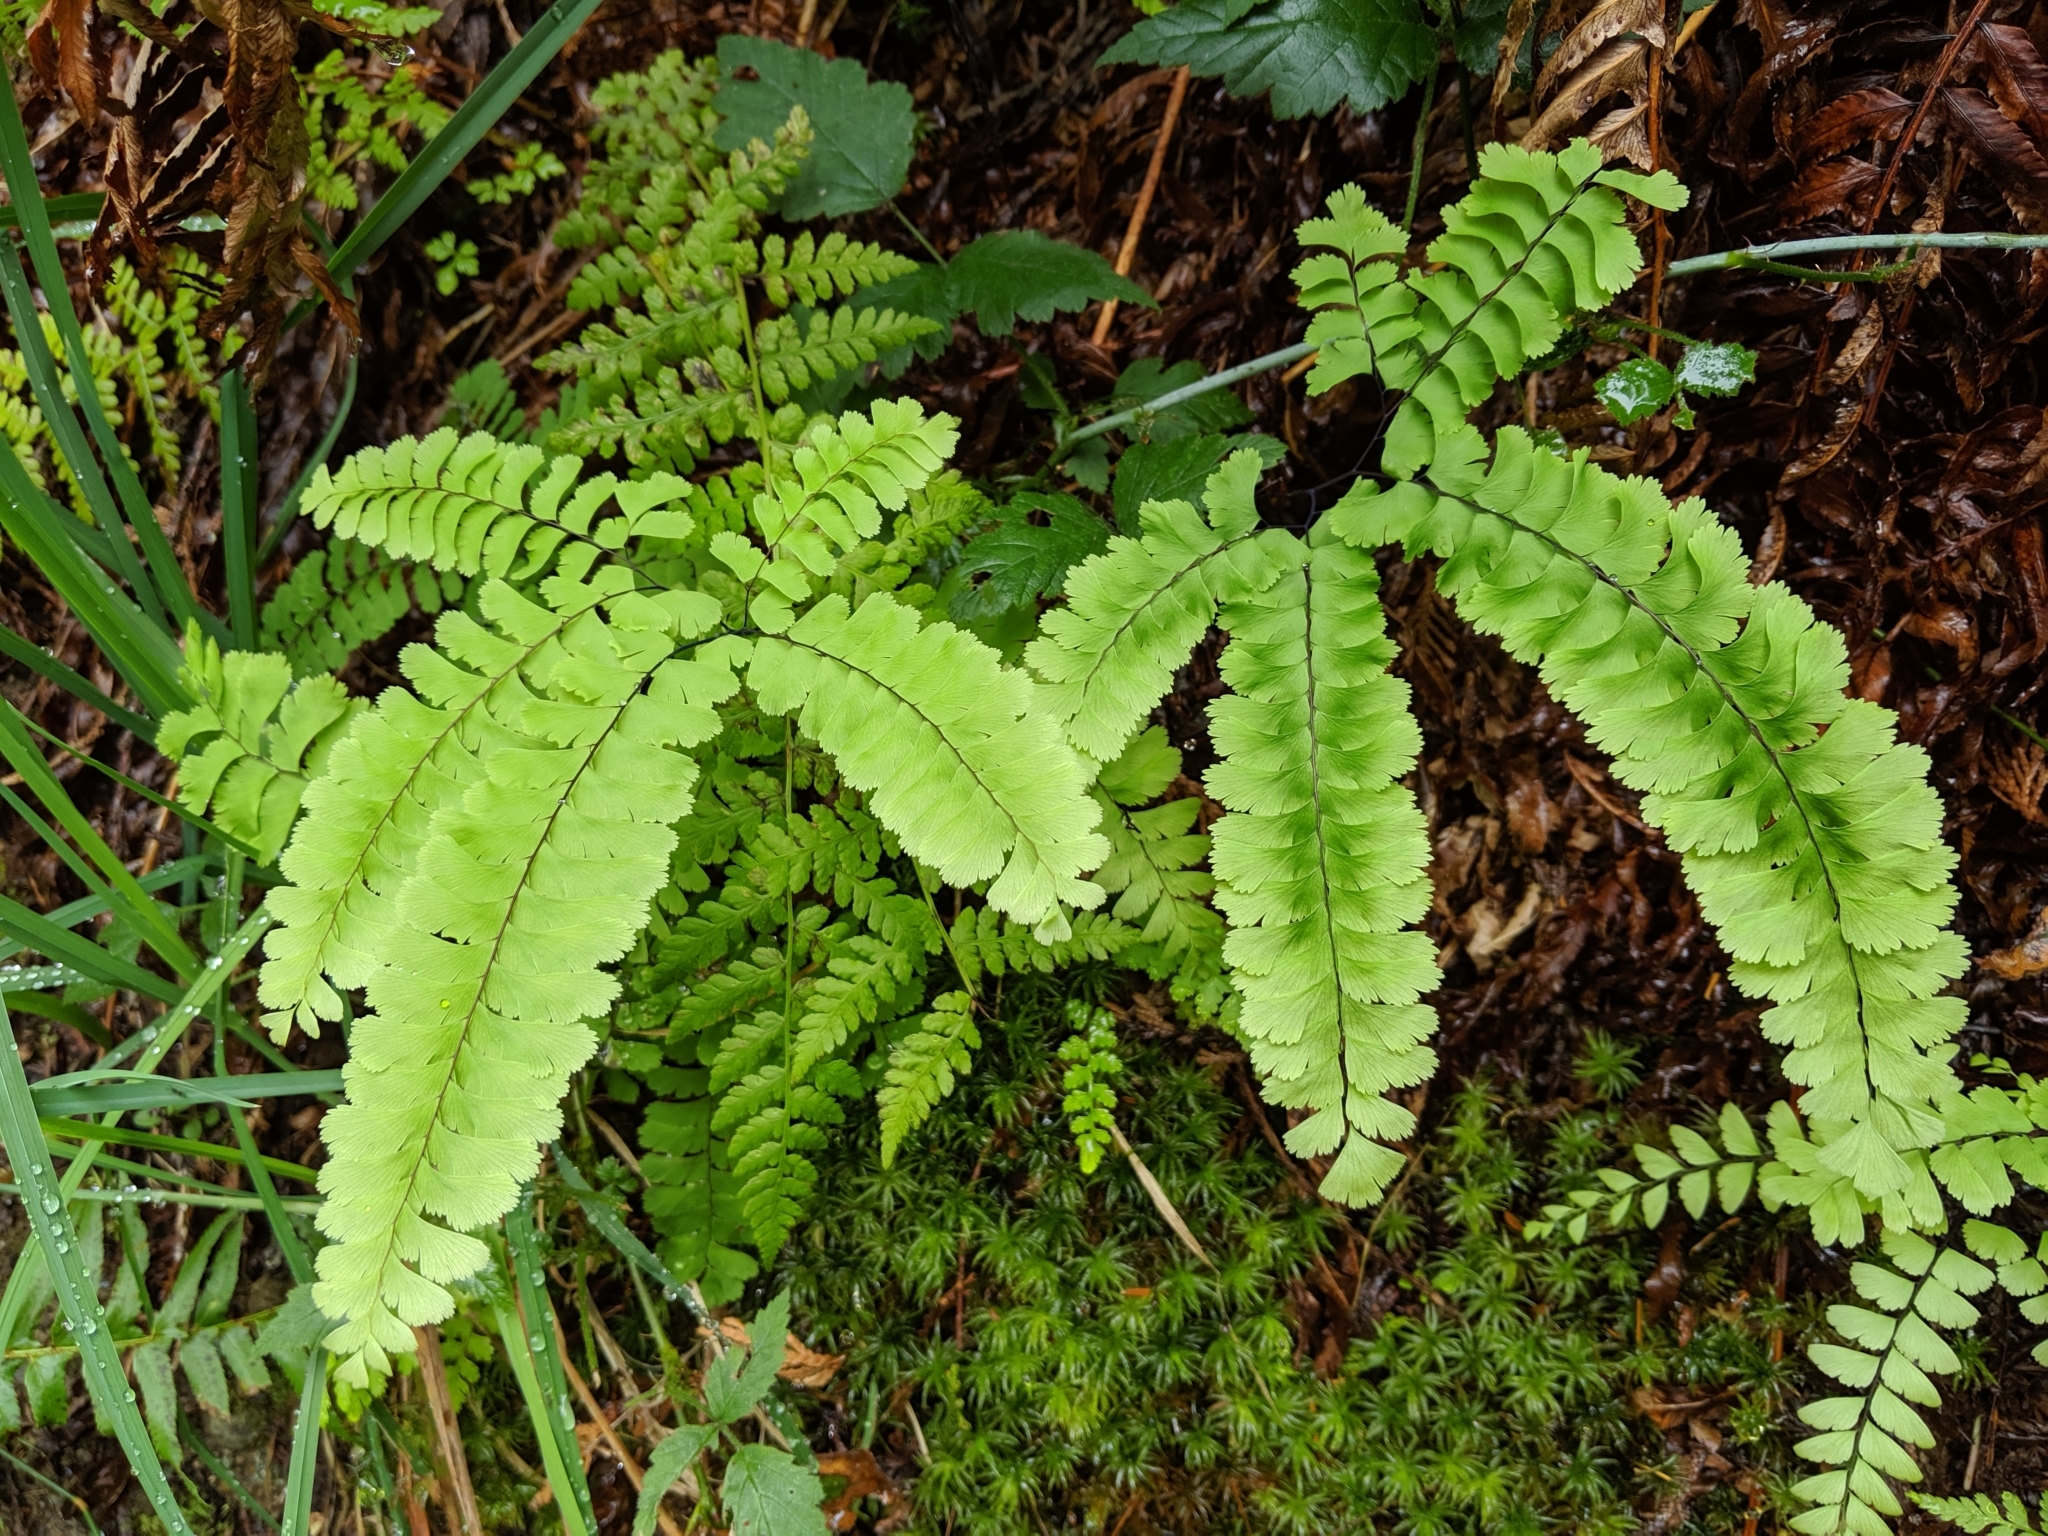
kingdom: Plantae
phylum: Tracheophyta
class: Polypodiopsida
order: Polypodiales
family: Pteridaceae
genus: Adiantum
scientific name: Adiantum aleuticum
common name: Aleutian maidenhair fern
